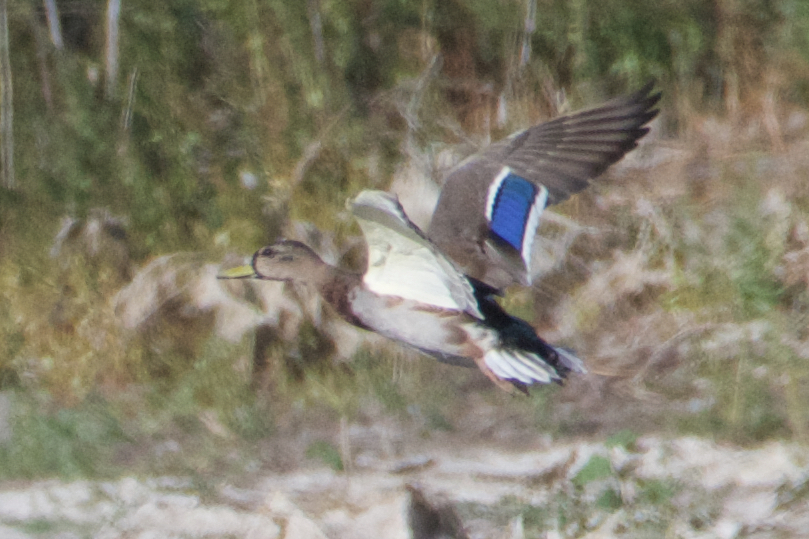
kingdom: Animalia
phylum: Chordata
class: Aves
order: Anseriformes
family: Anatidae
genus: Anas
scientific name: Anas platyrhynchos
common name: Mallard
